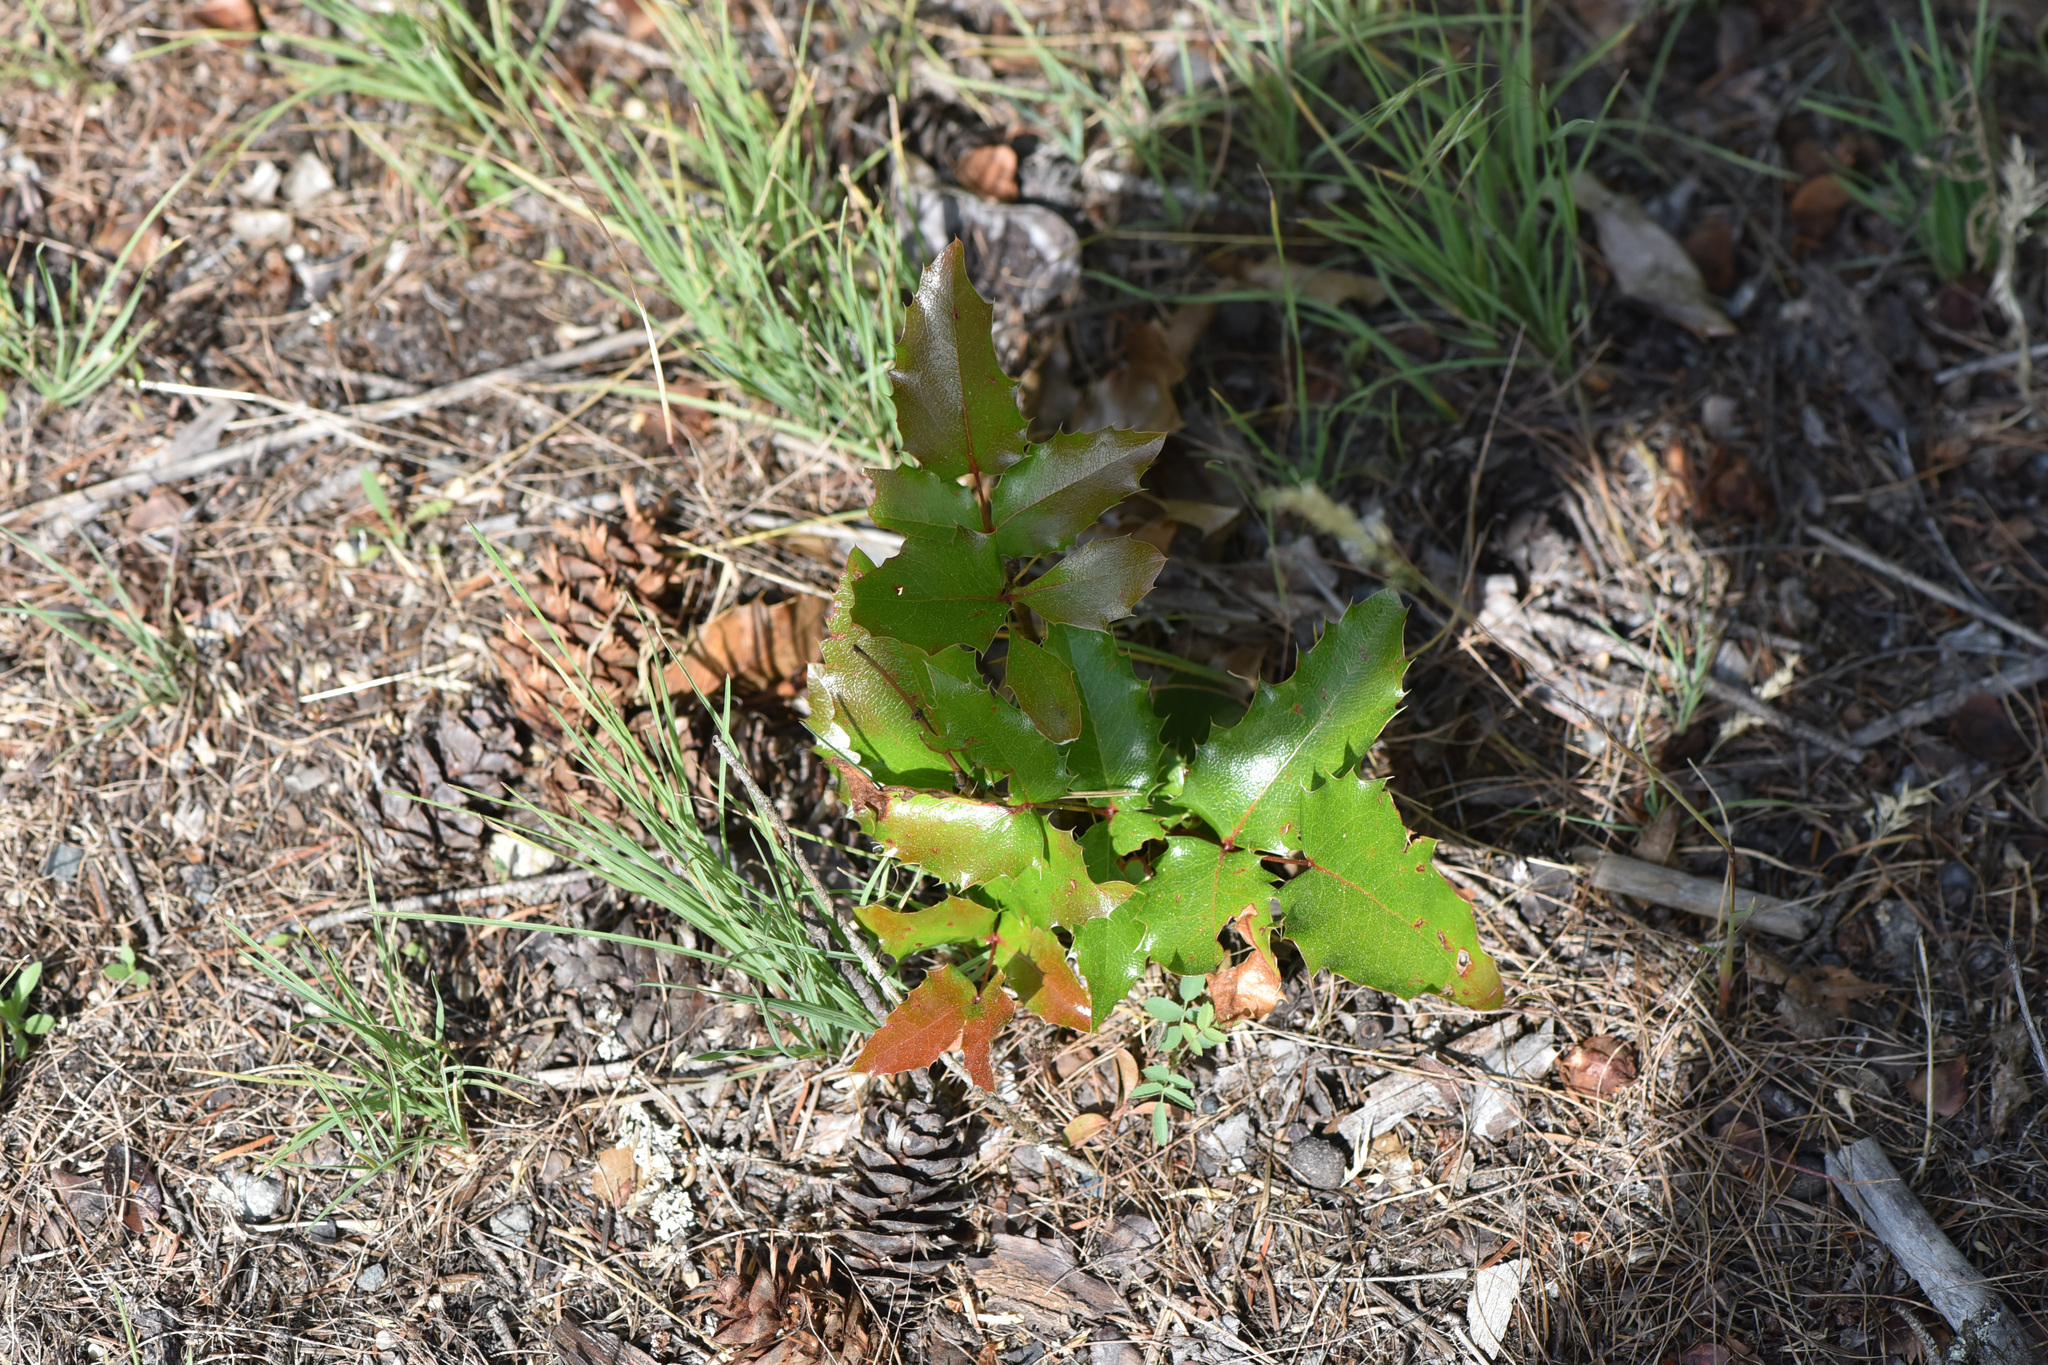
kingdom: Plantae
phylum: Tracheophyta
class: Magnoliopsida
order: Ranunculales
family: Berberidaceae
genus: Mahonia
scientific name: Mahonia aquifolium
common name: Oregon-grape
